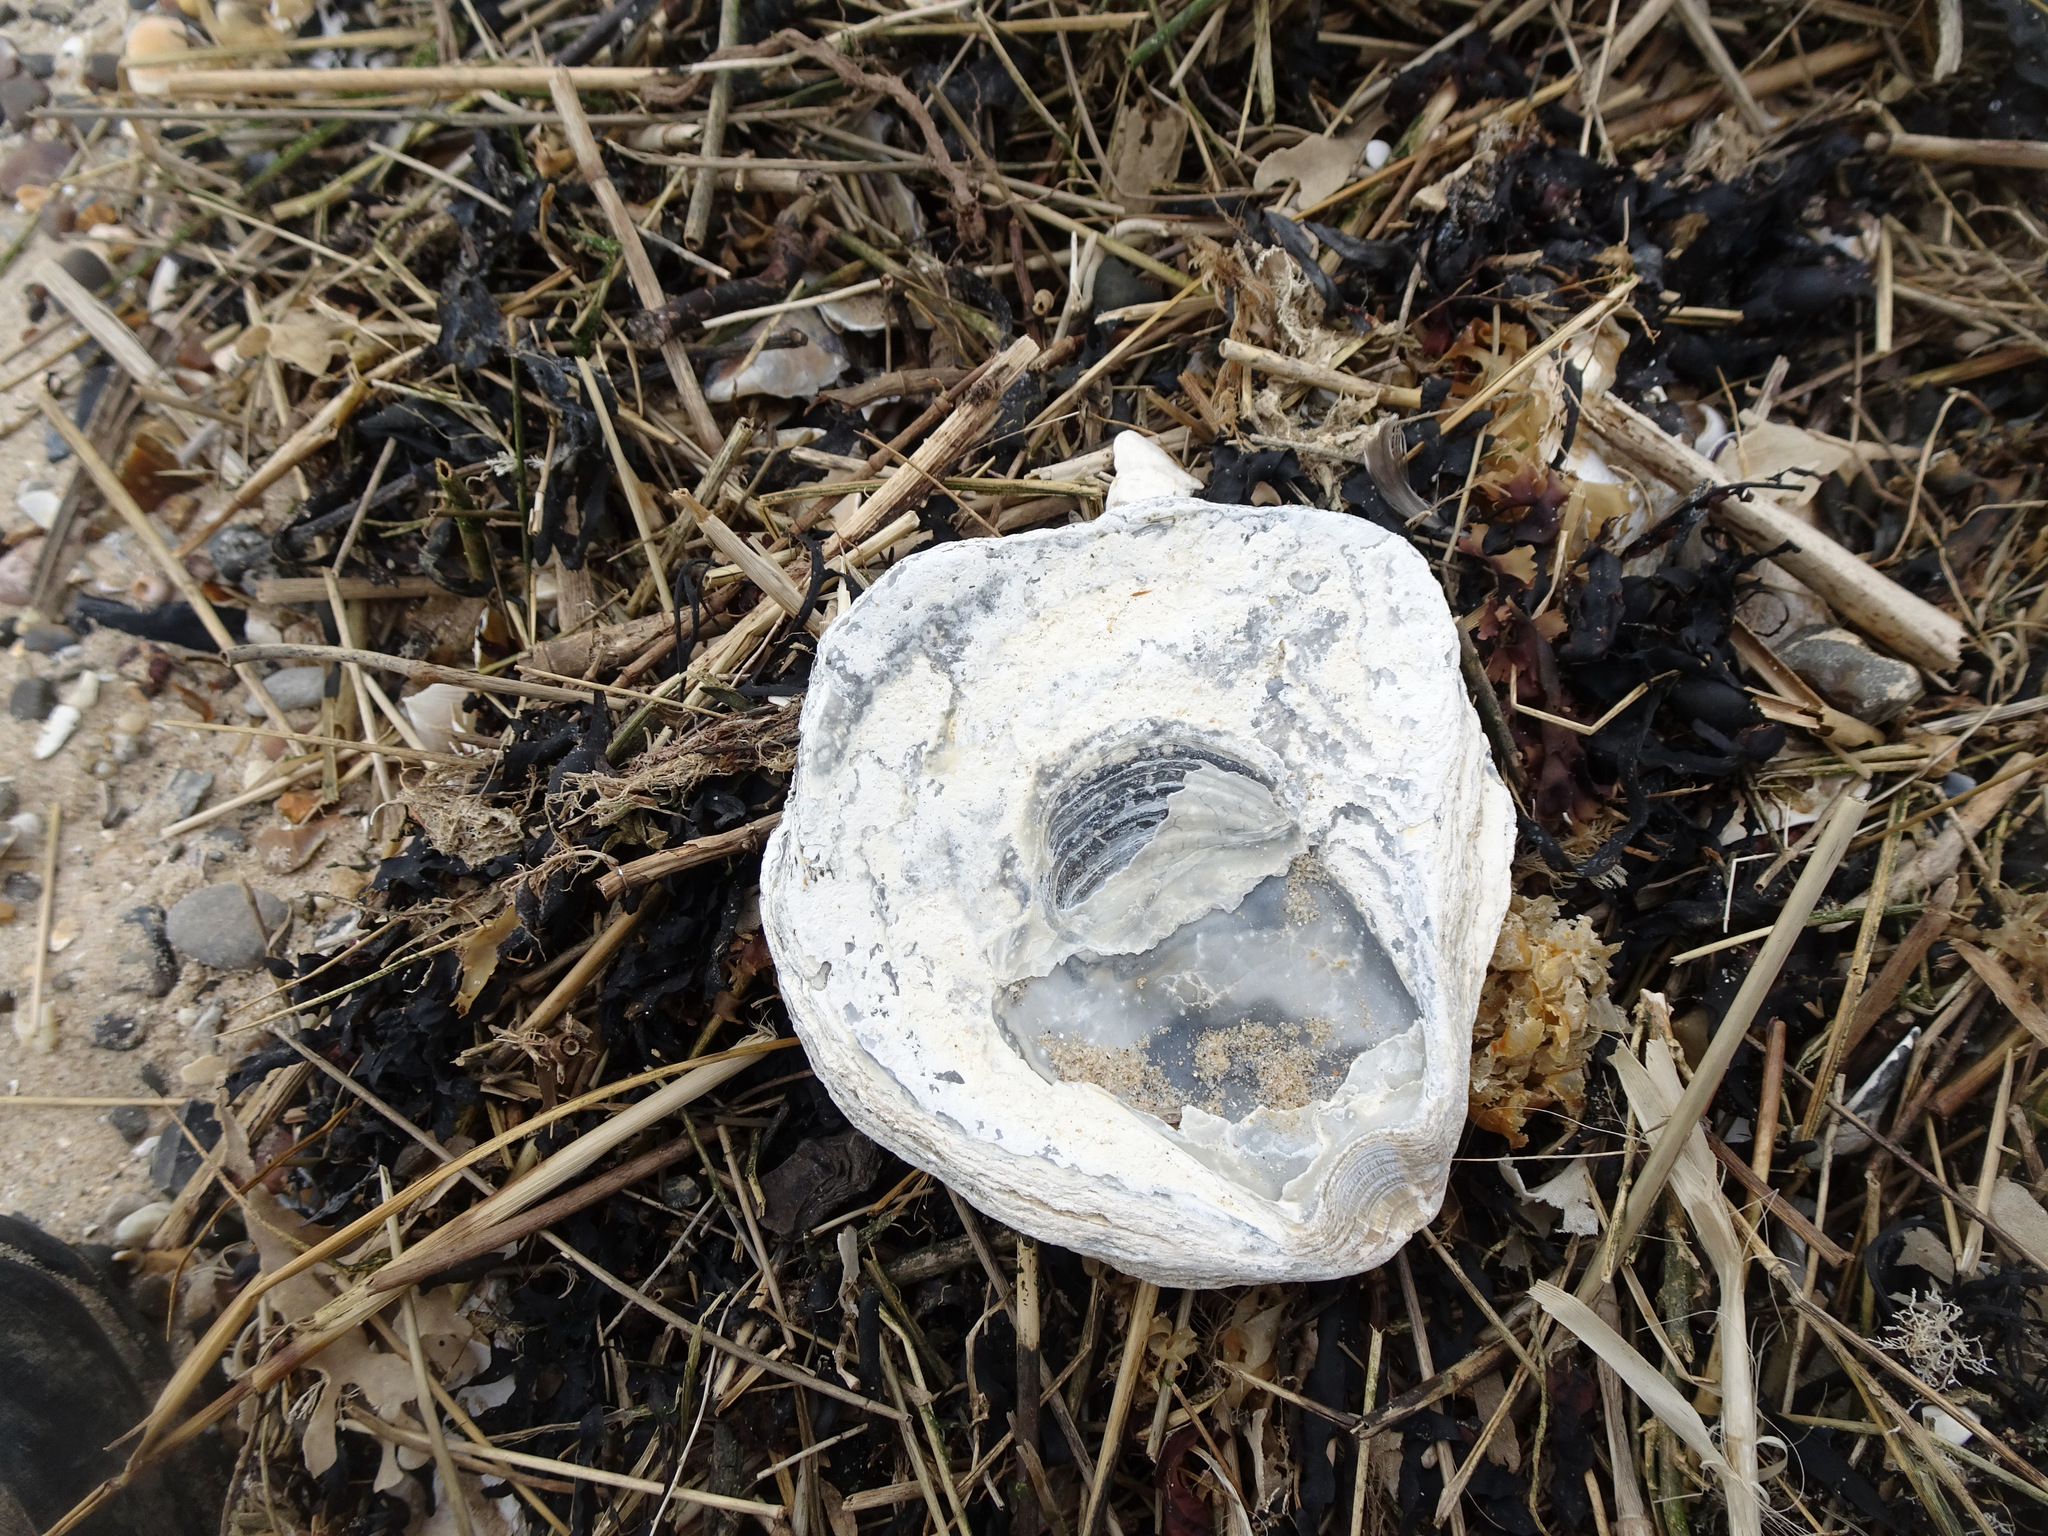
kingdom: Animalia
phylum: Mollusca
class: Bivalvia
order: Ostreida
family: Ostreidae
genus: Ostrea
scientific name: Ostrea edulis
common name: Flat oyster
